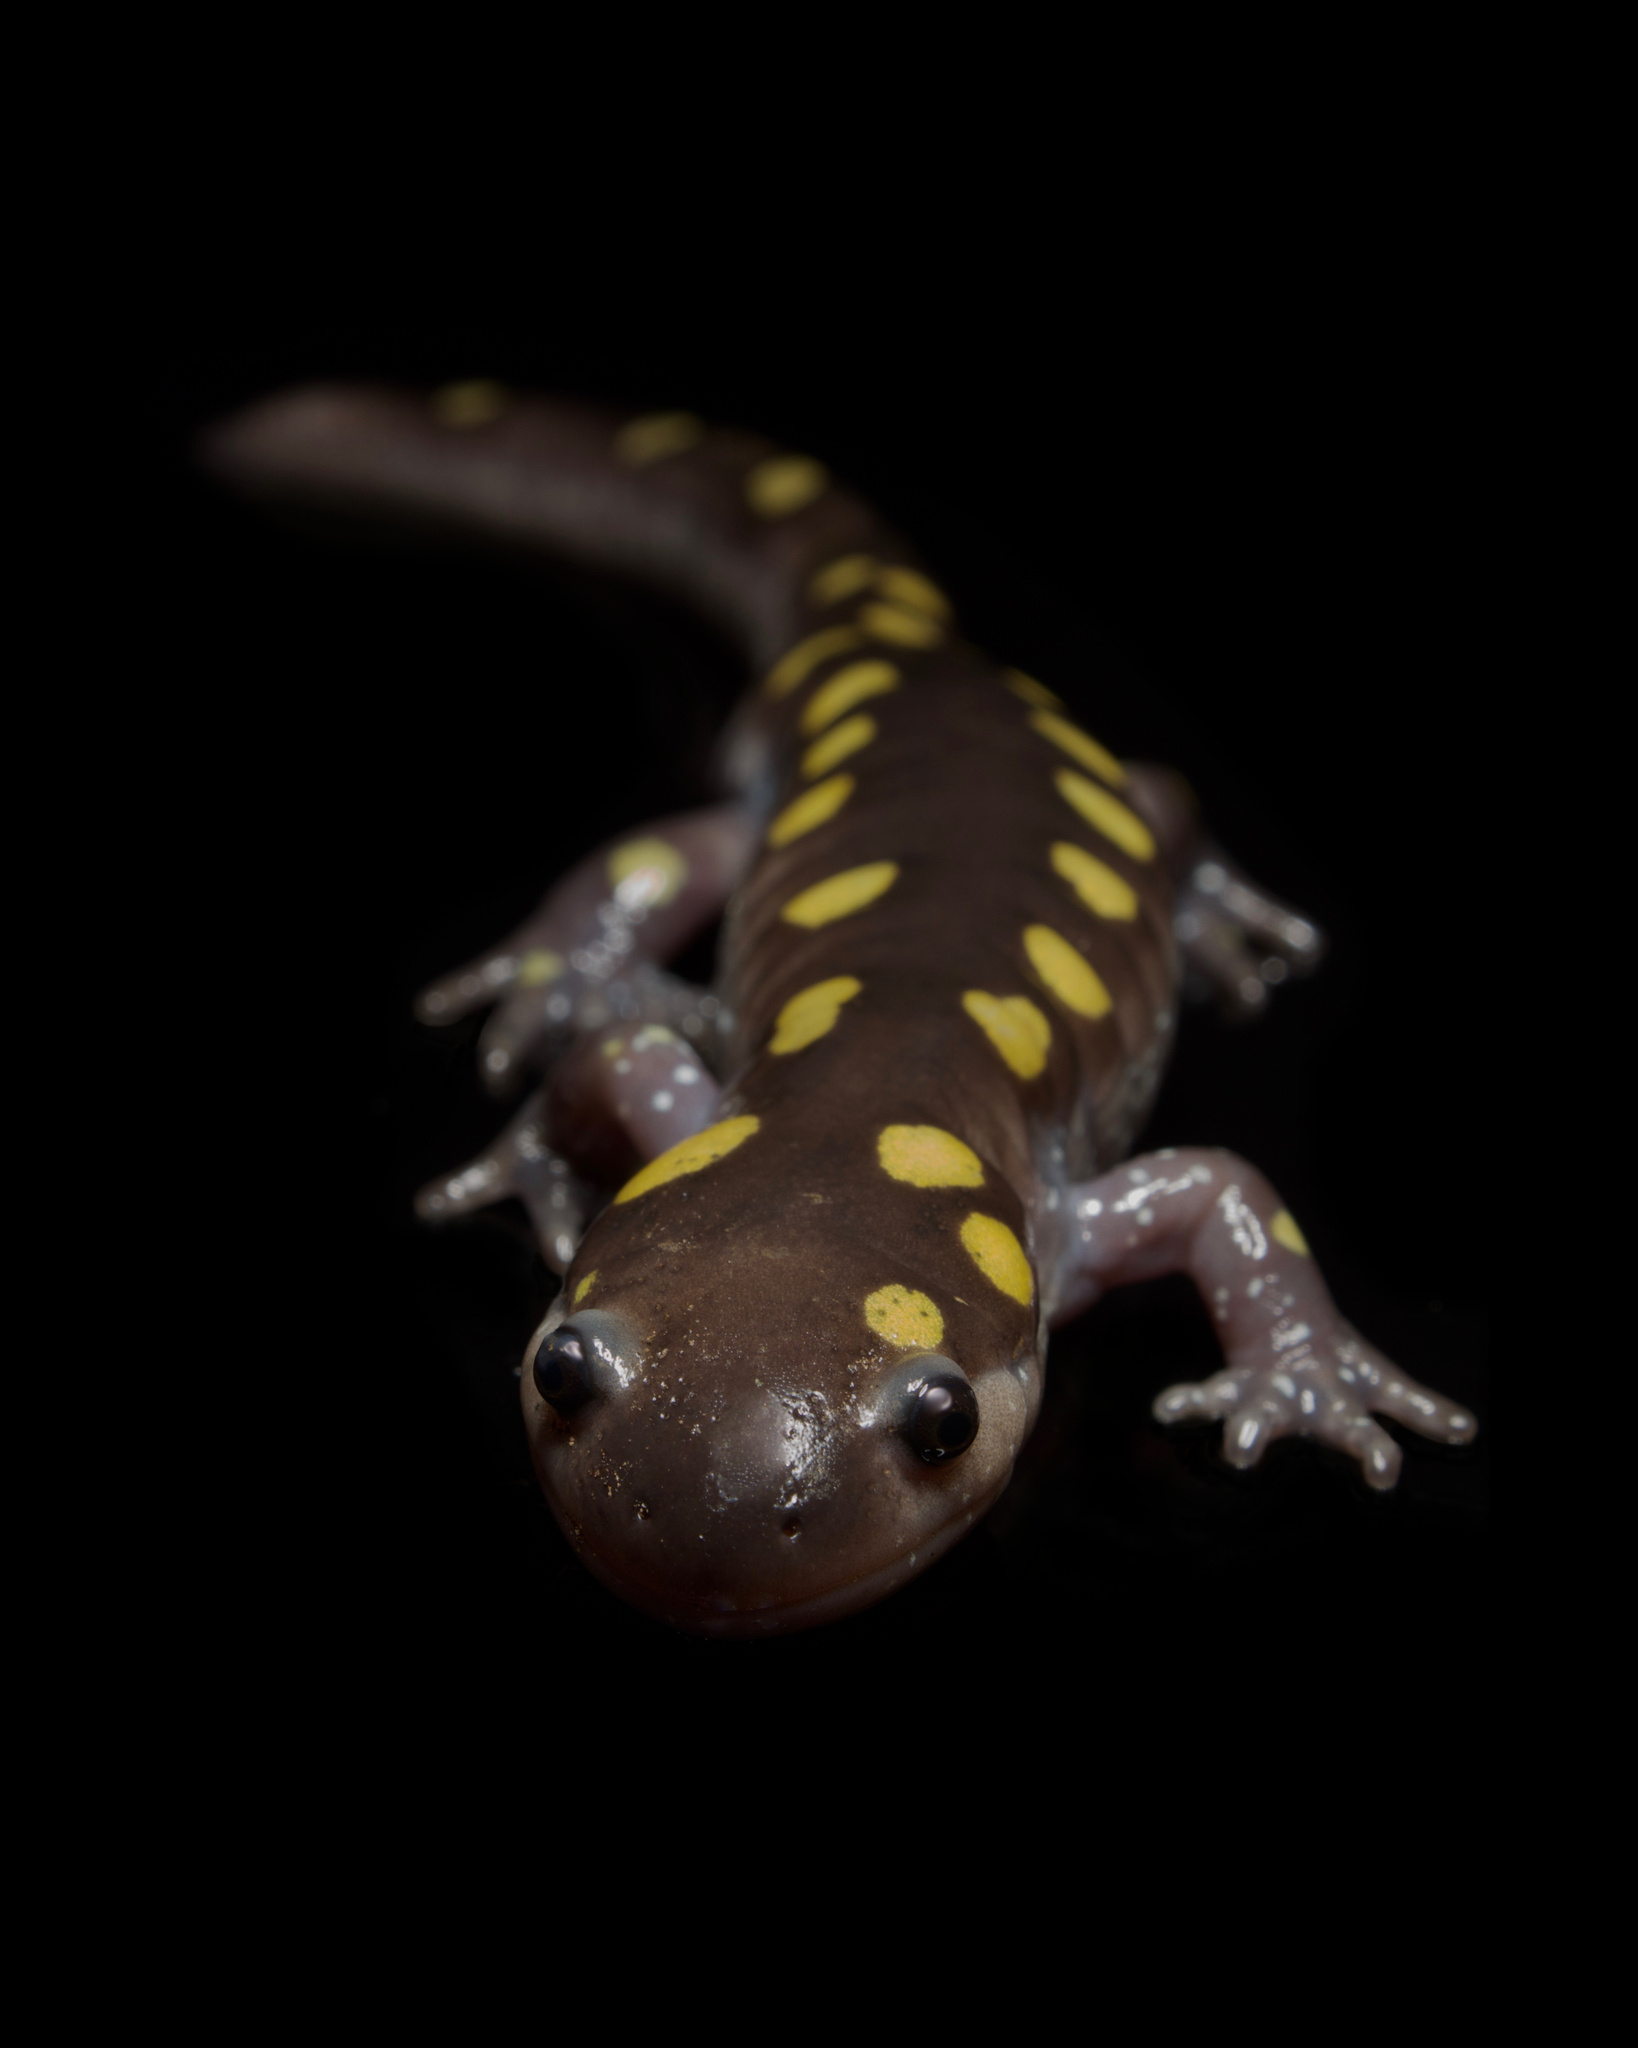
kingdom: Animalia
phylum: Chordata
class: Amphibia
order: Caudata
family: Ambystomatidae
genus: Ambystoma
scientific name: Ambystoma maculatum
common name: Spotted salamander
